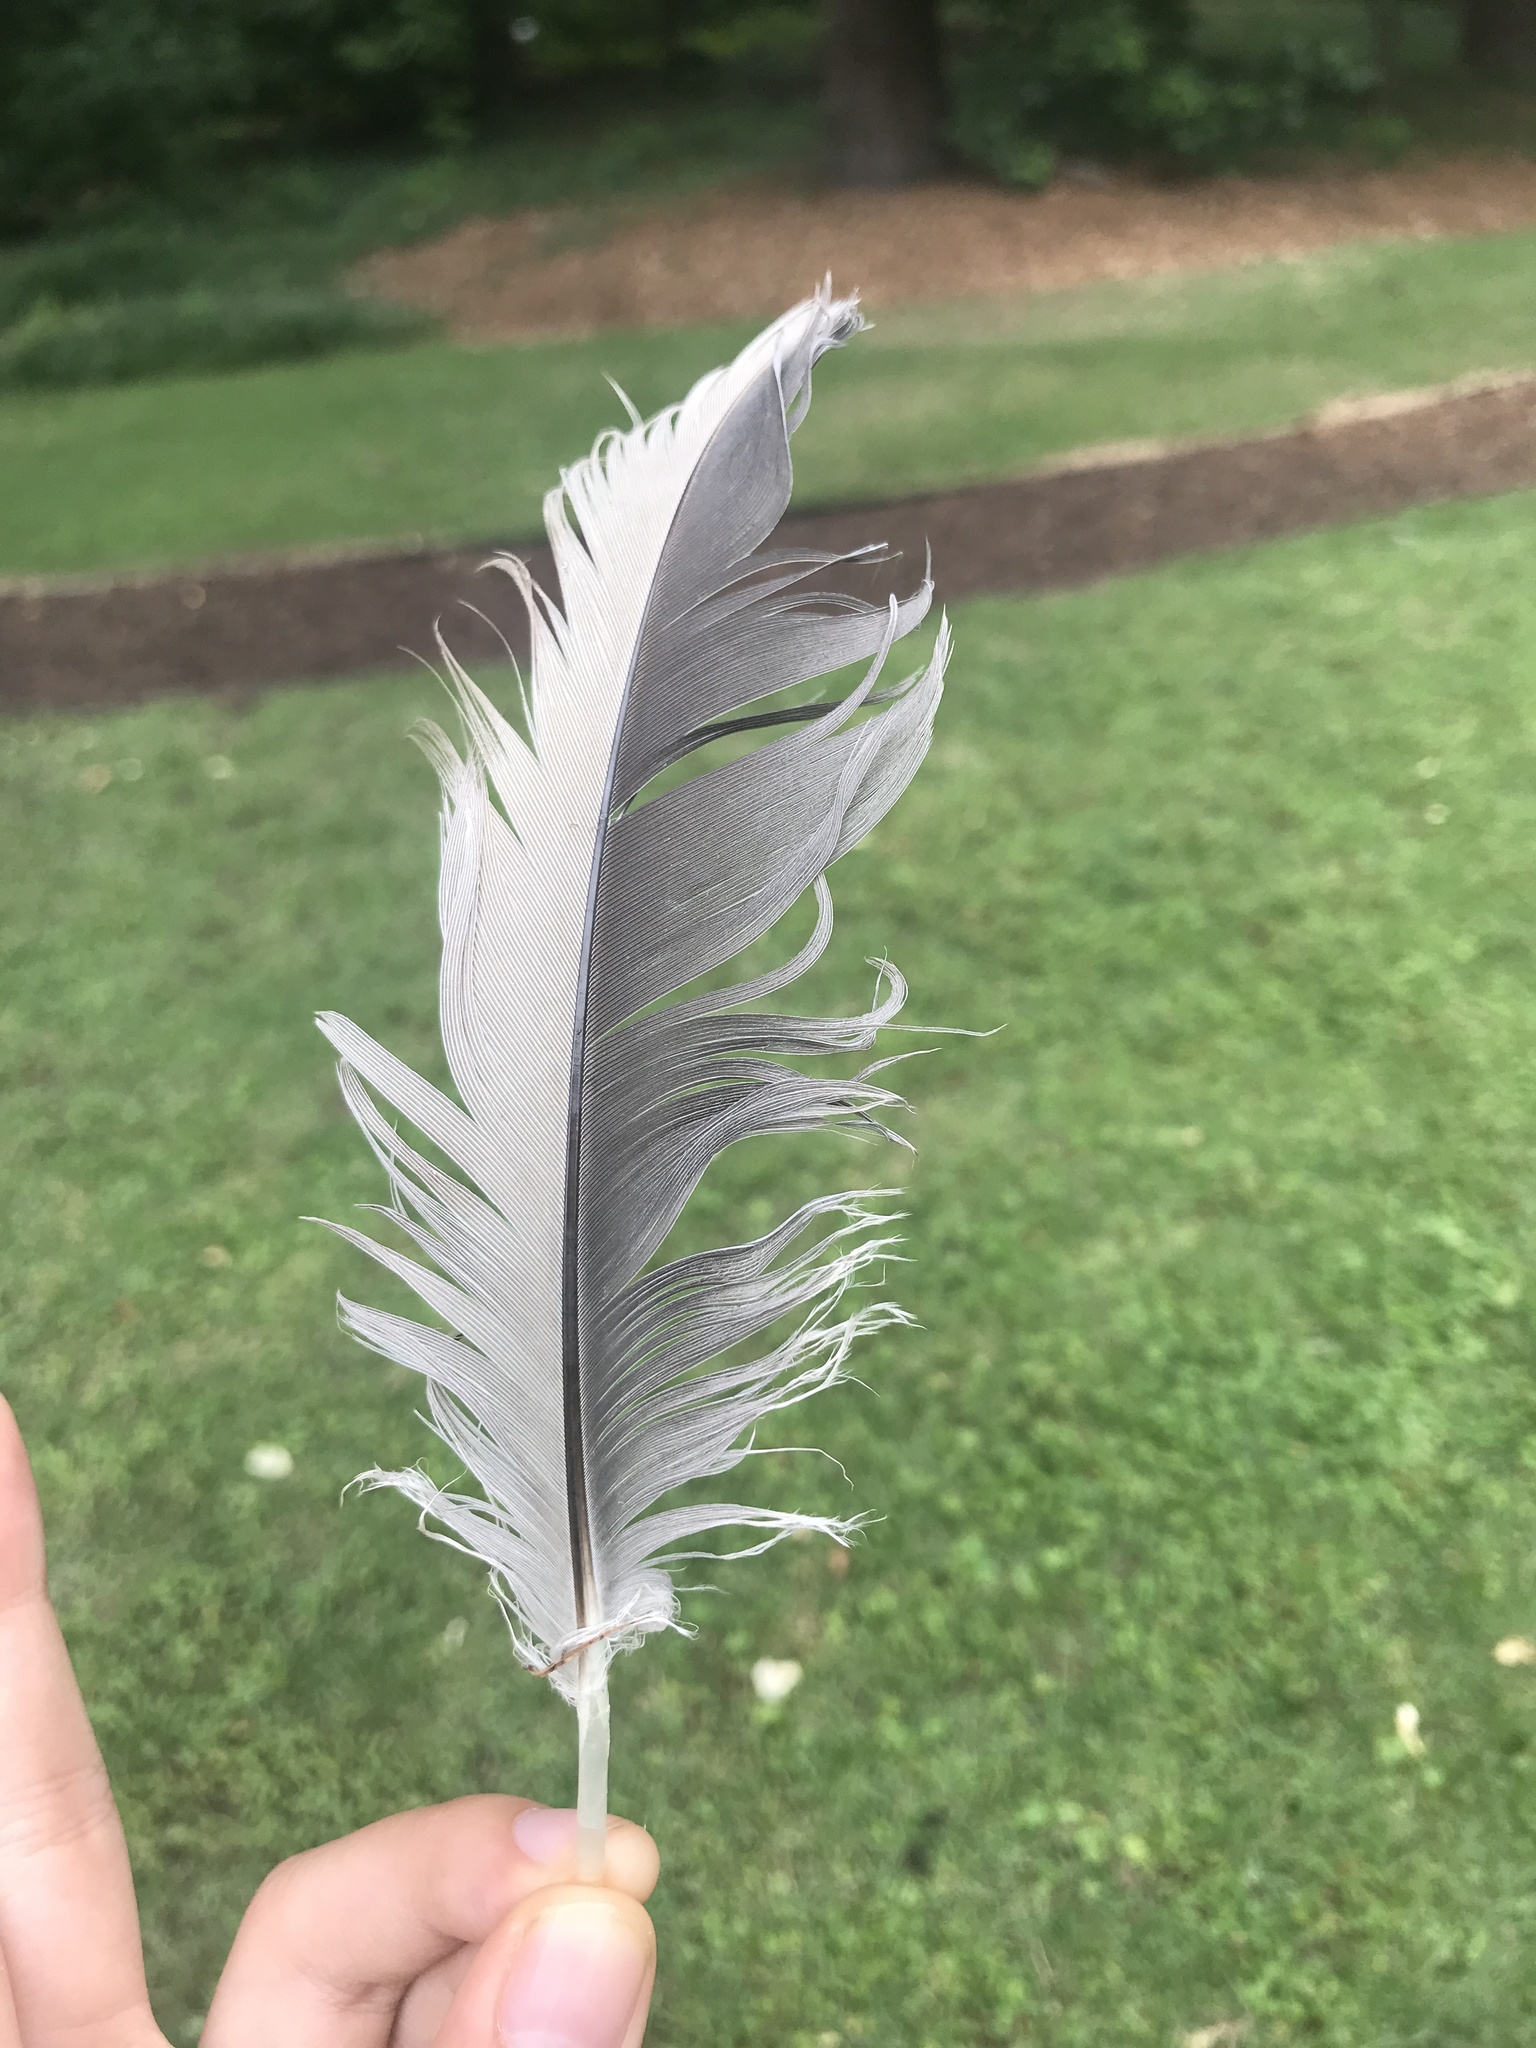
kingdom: Animalia
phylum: Chordata
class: Aves
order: Pelecaniformes
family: Ardeidae
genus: Ardea
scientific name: Ardea herodias
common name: Great blue heron
